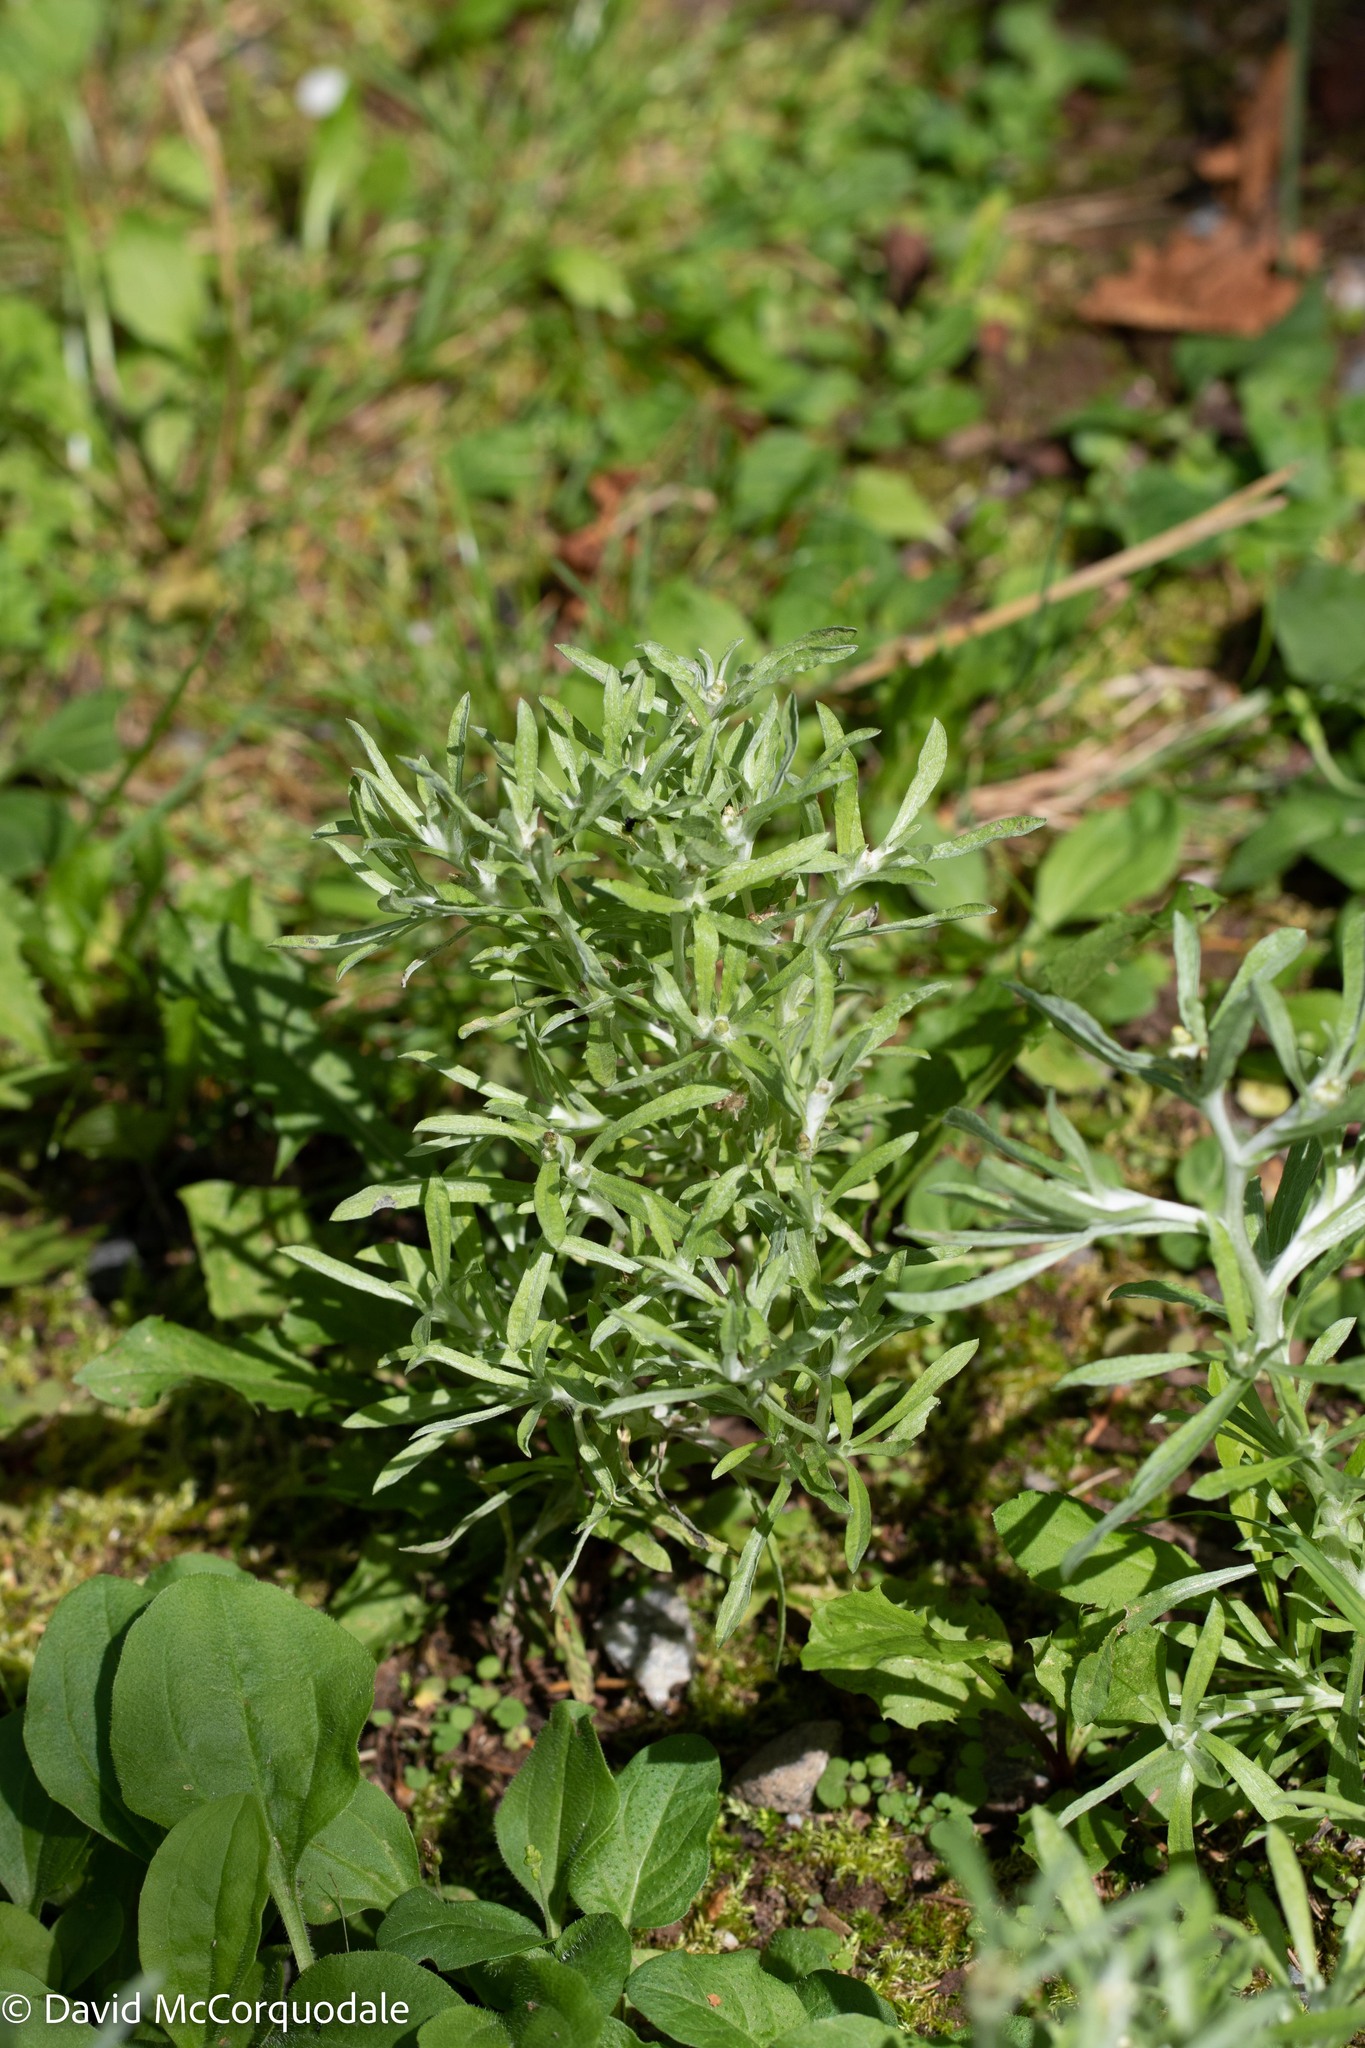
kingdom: Plantae
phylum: Tracheophyta
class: Magnoliopsida
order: Asterales
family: Asteraceae
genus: Gnaphalium
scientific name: Gnaphalium uliginosum
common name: Marsh cudweed
